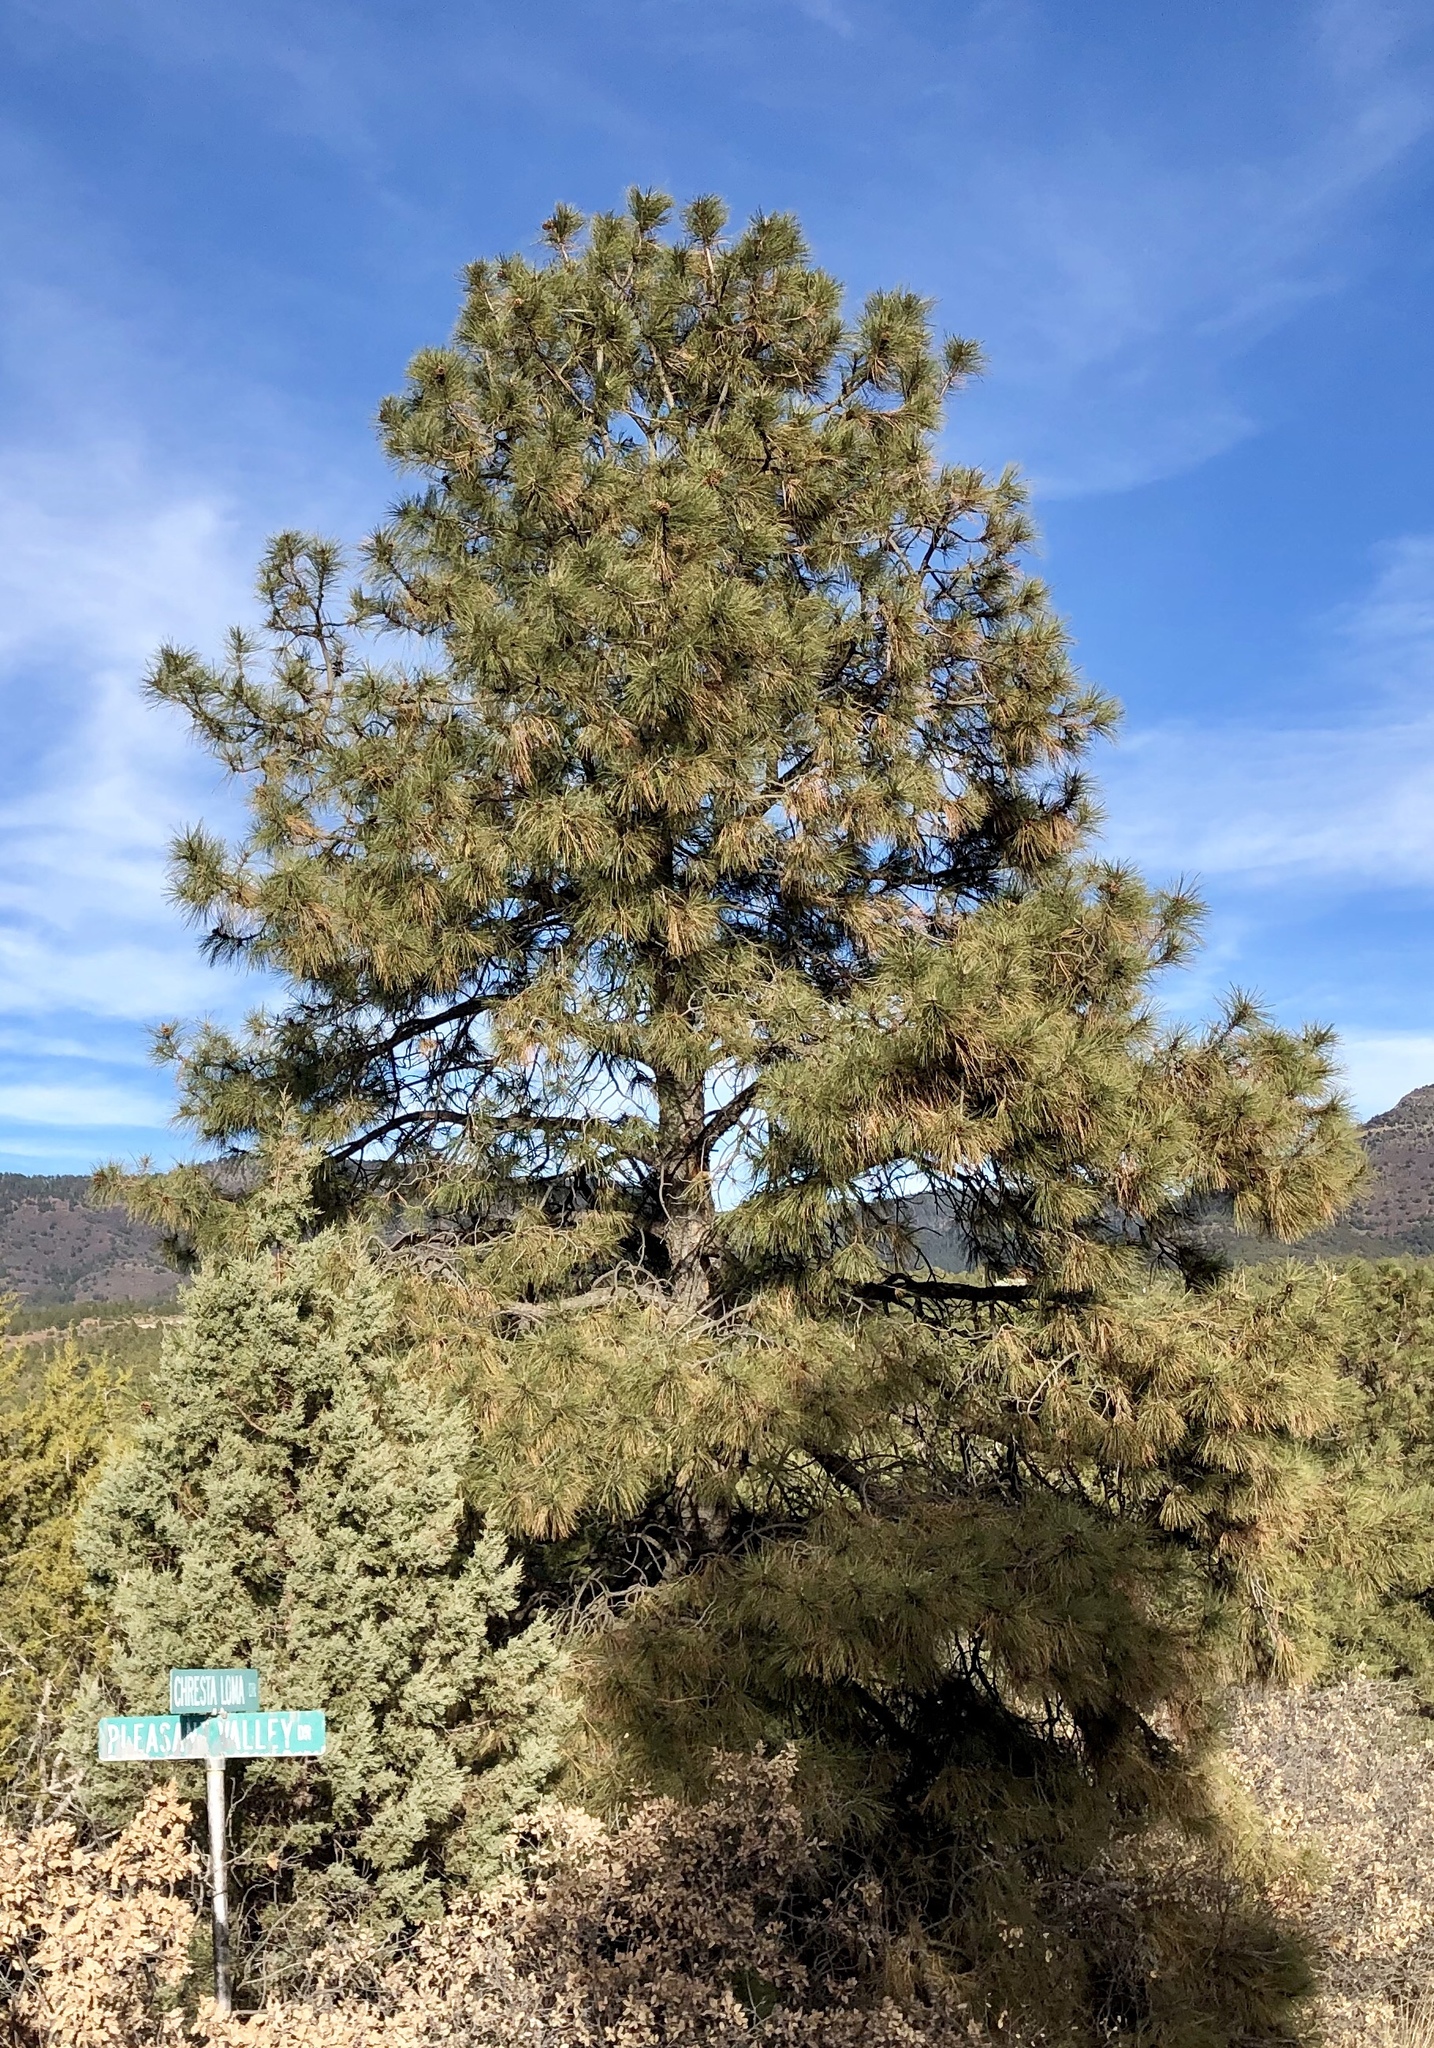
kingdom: Plantae
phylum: Tracheophyta
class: Pinopsida
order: Pinales
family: Pinaceae
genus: Pinus
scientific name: Pinus ponderosa
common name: Western yellow-pine
